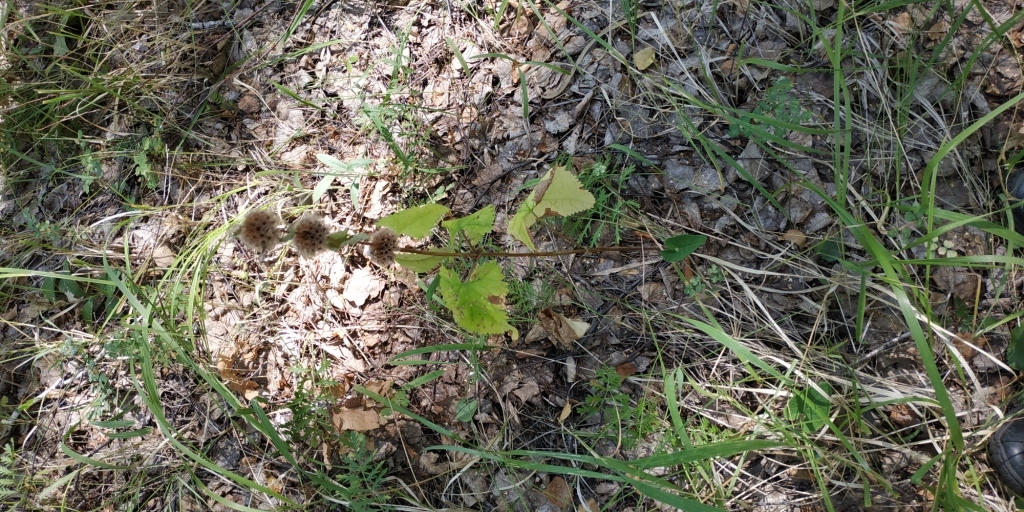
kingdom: Plantae
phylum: Tracheophyta
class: Magnoliopsida
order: Lamiales
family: Lamiaceae
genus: Phlomoides
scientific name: Phlomoides tuberosa
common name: Tuberous jerusalem sage
